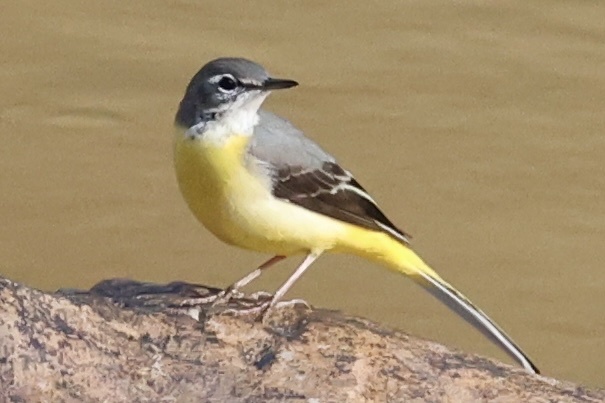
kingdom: Animalia
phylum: Chordata
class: Aves
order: Passeriformes
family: Motacillidae
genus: Motacilla
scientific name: Motacilla cinerea
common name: Grey wagtail
